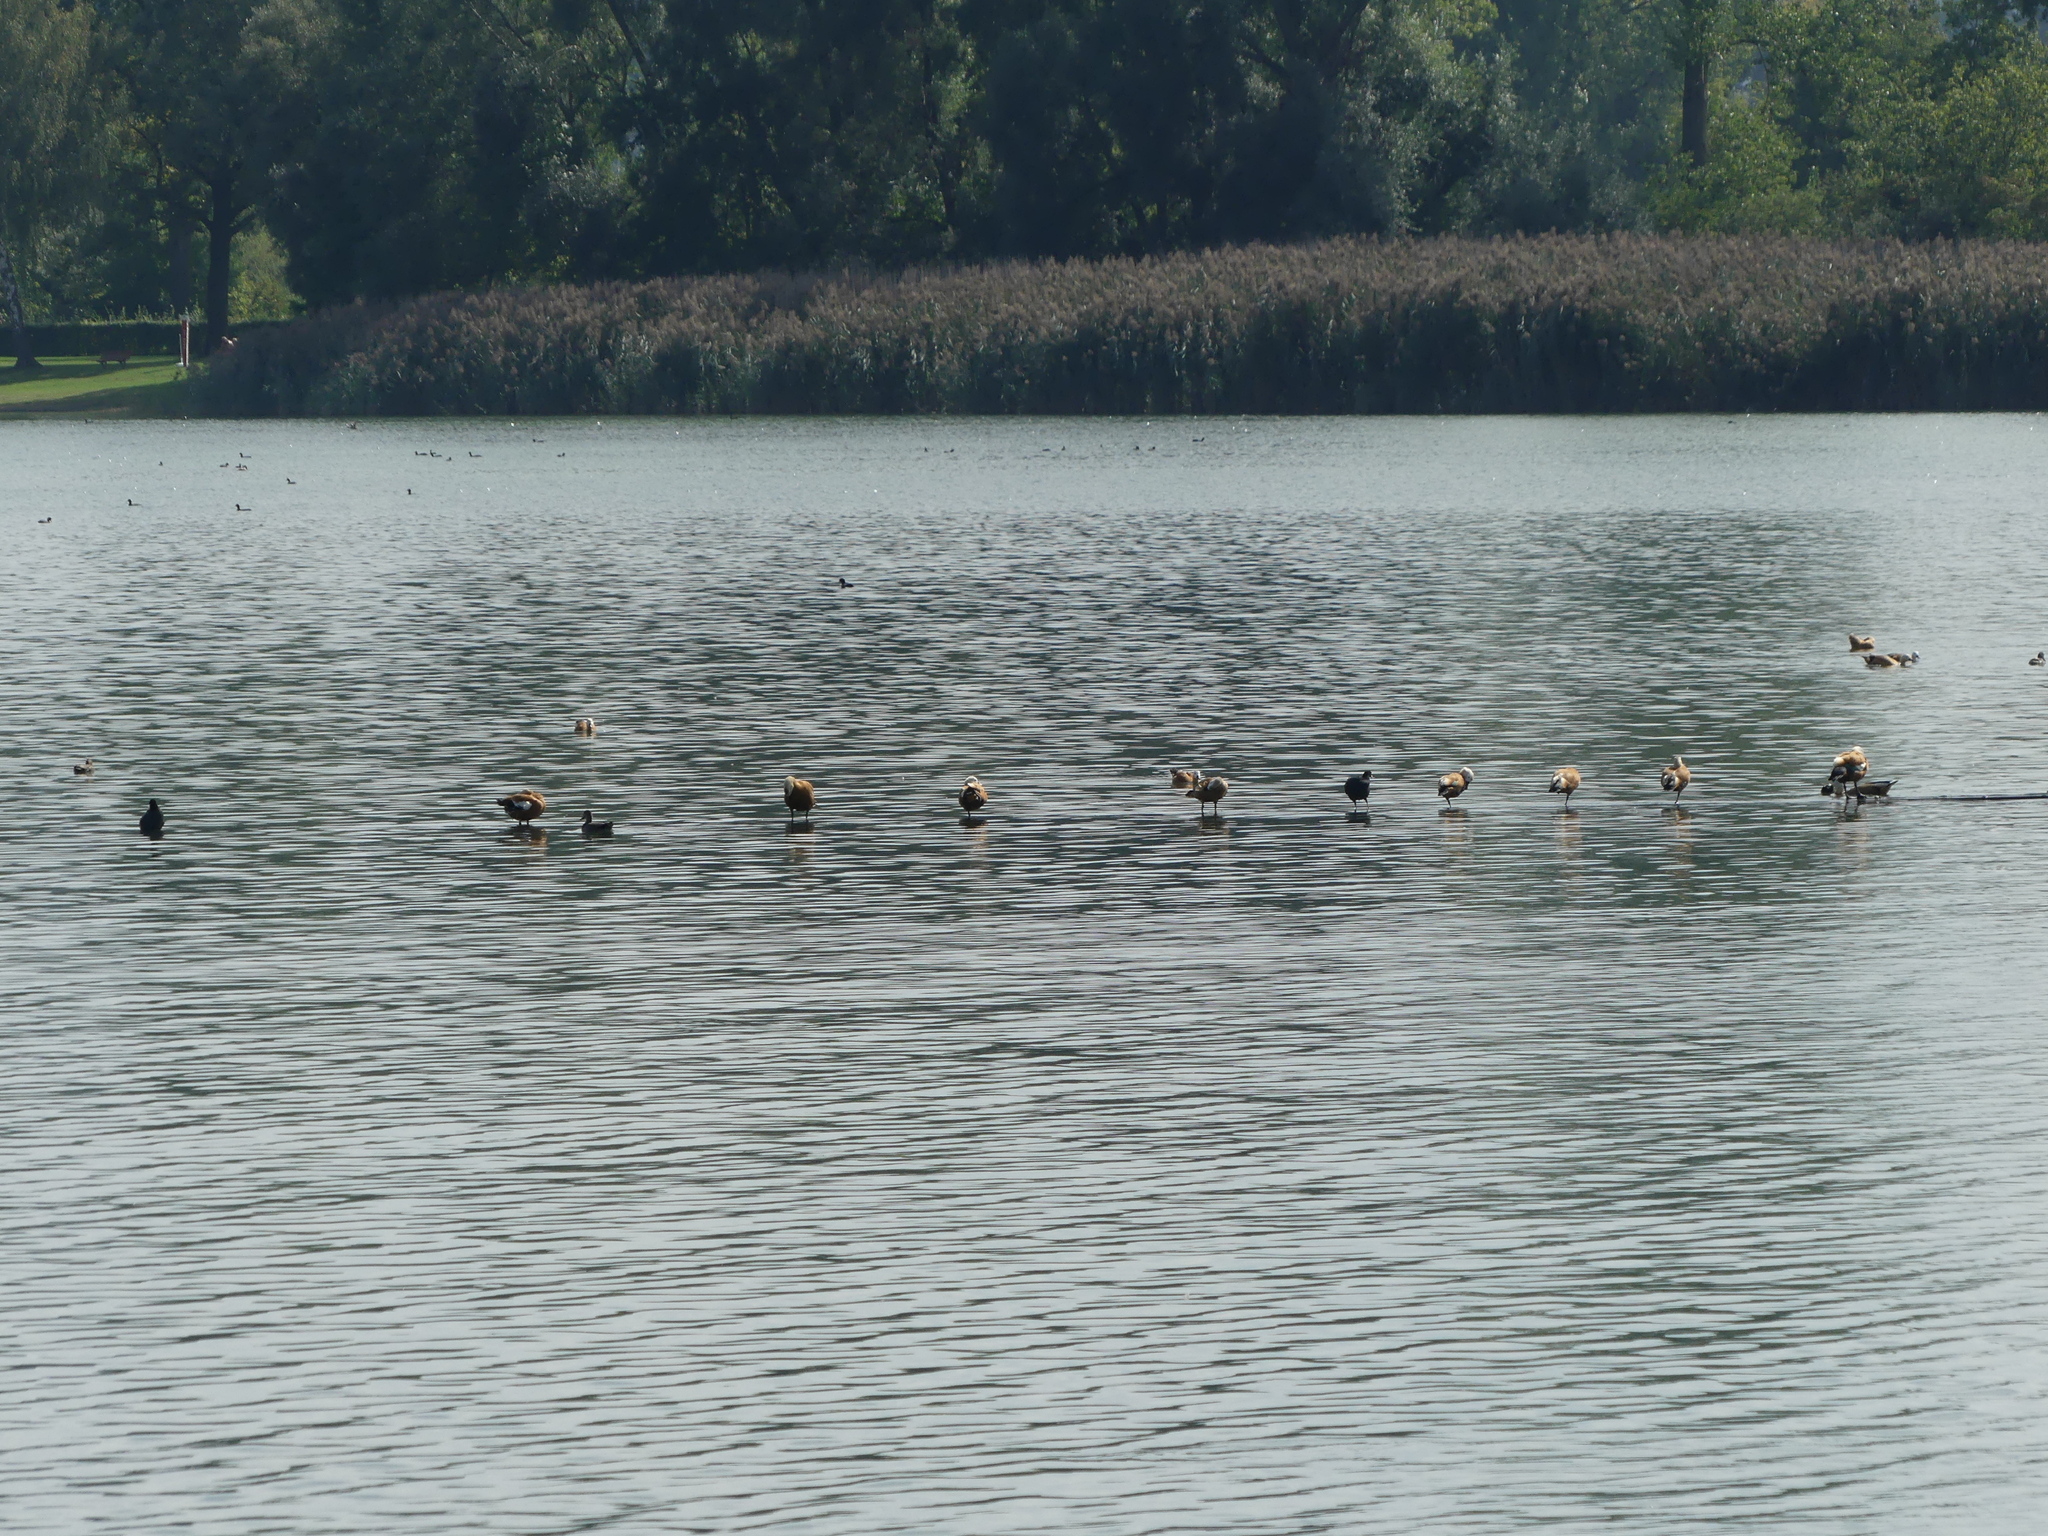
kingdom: Animalia
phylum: Chordata
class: Aves
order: Anseriformes
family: Anatidae
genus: Tadorna
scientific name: Tadorna ferruginea
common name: Ruddy shelduck
